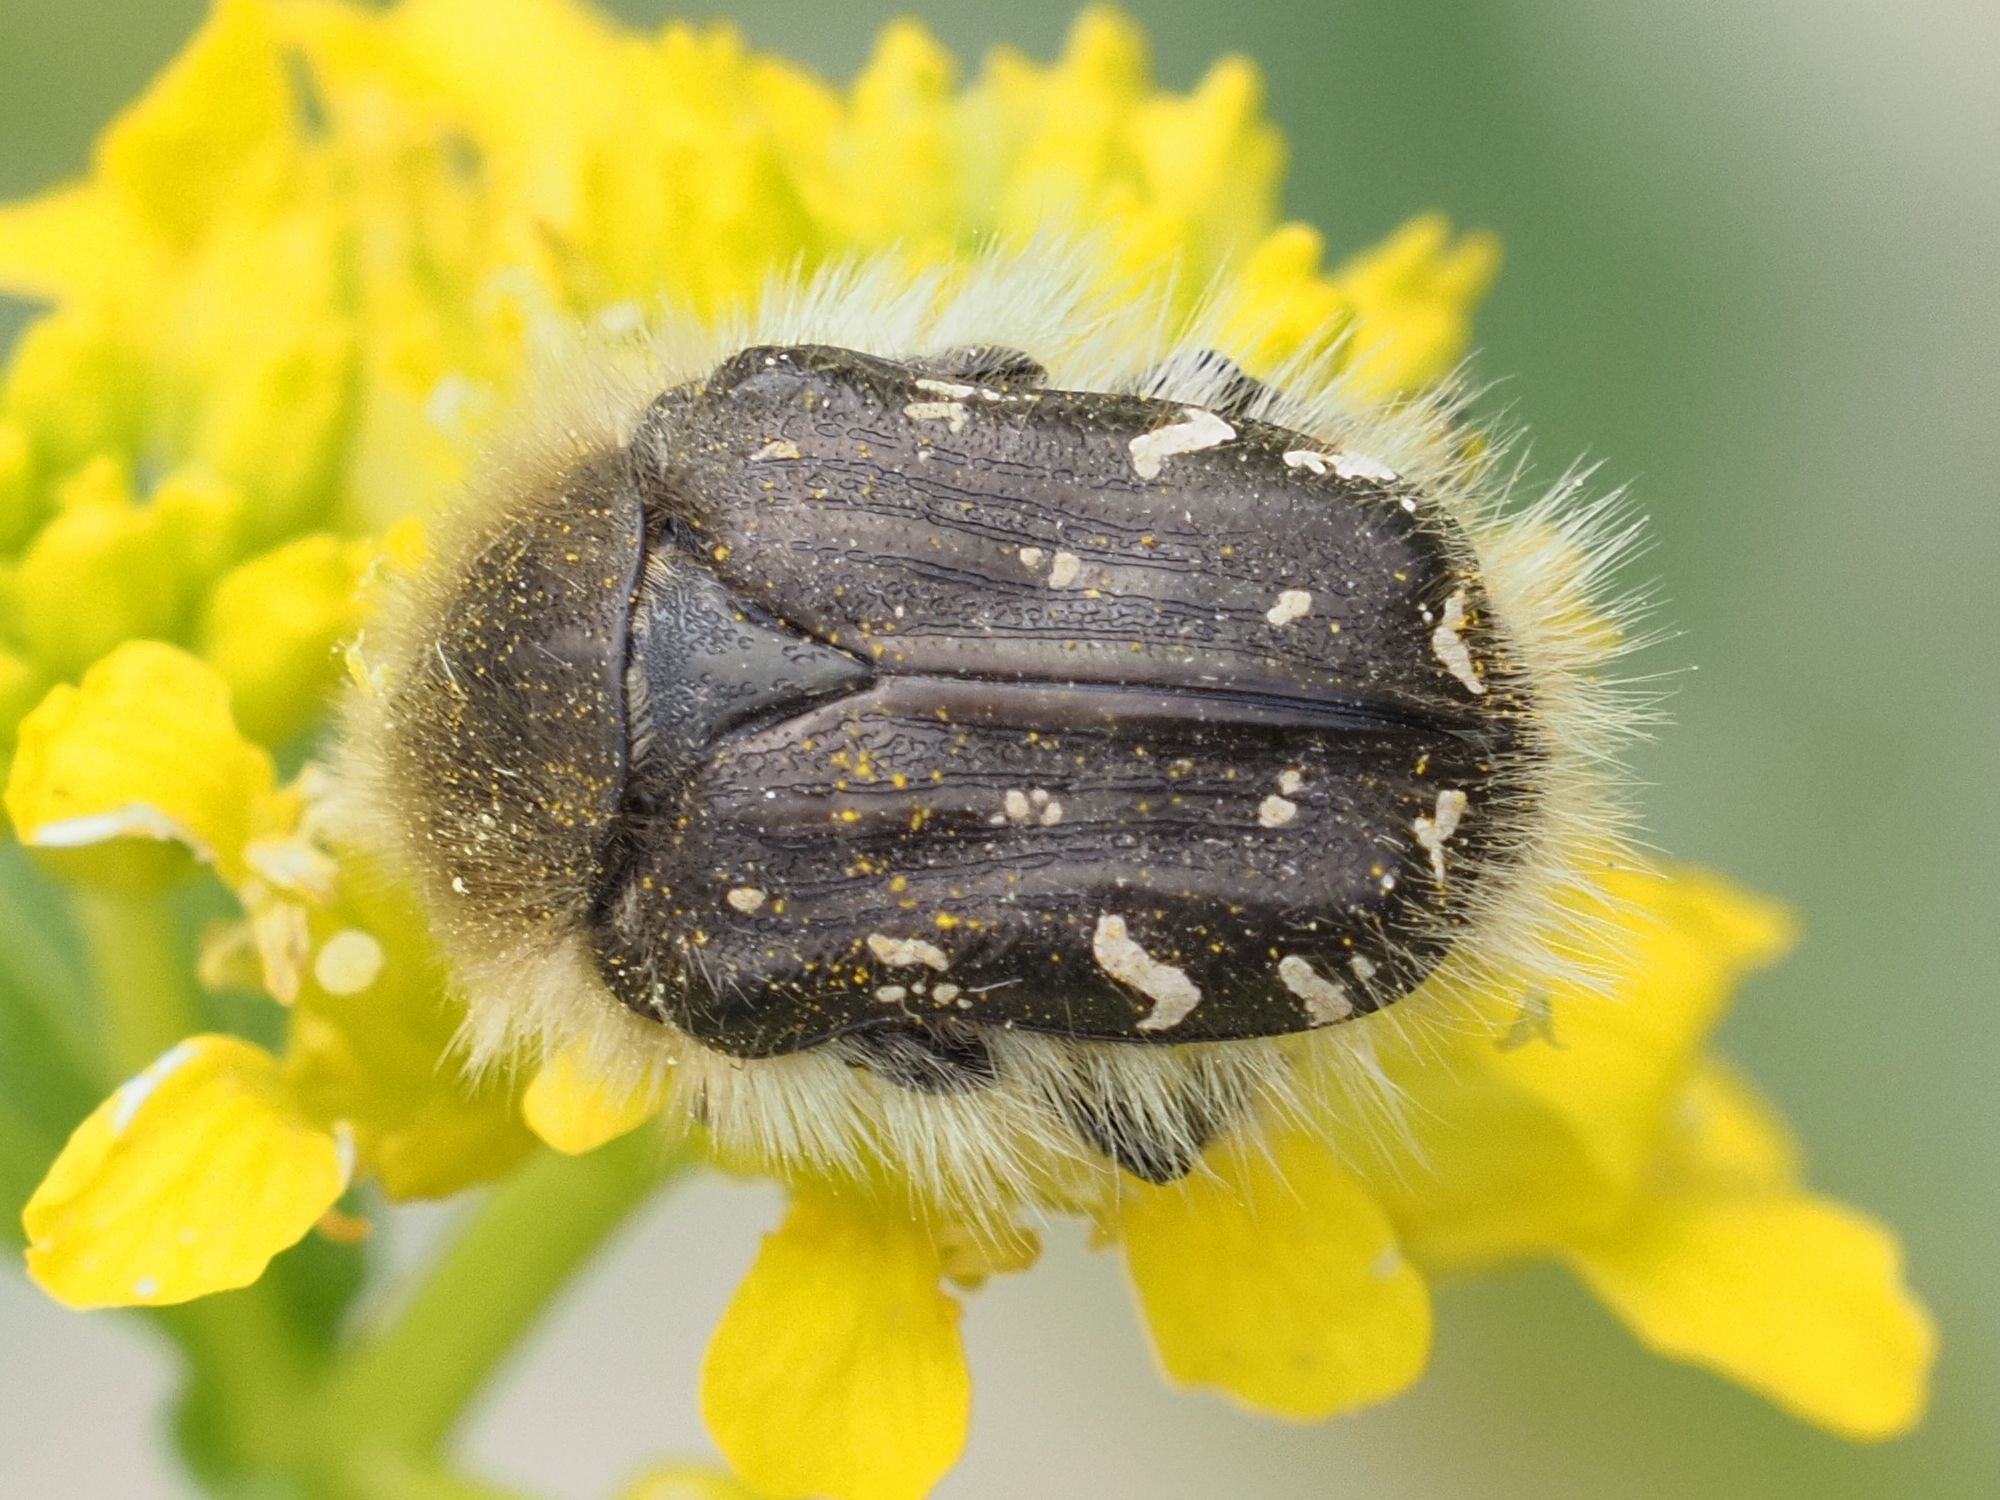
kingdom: Animalia
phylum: Arthropoda
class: Insecta
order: Coleoptera
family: Scarabaeidae
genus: Tropinota
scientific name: Tropinota hirta
